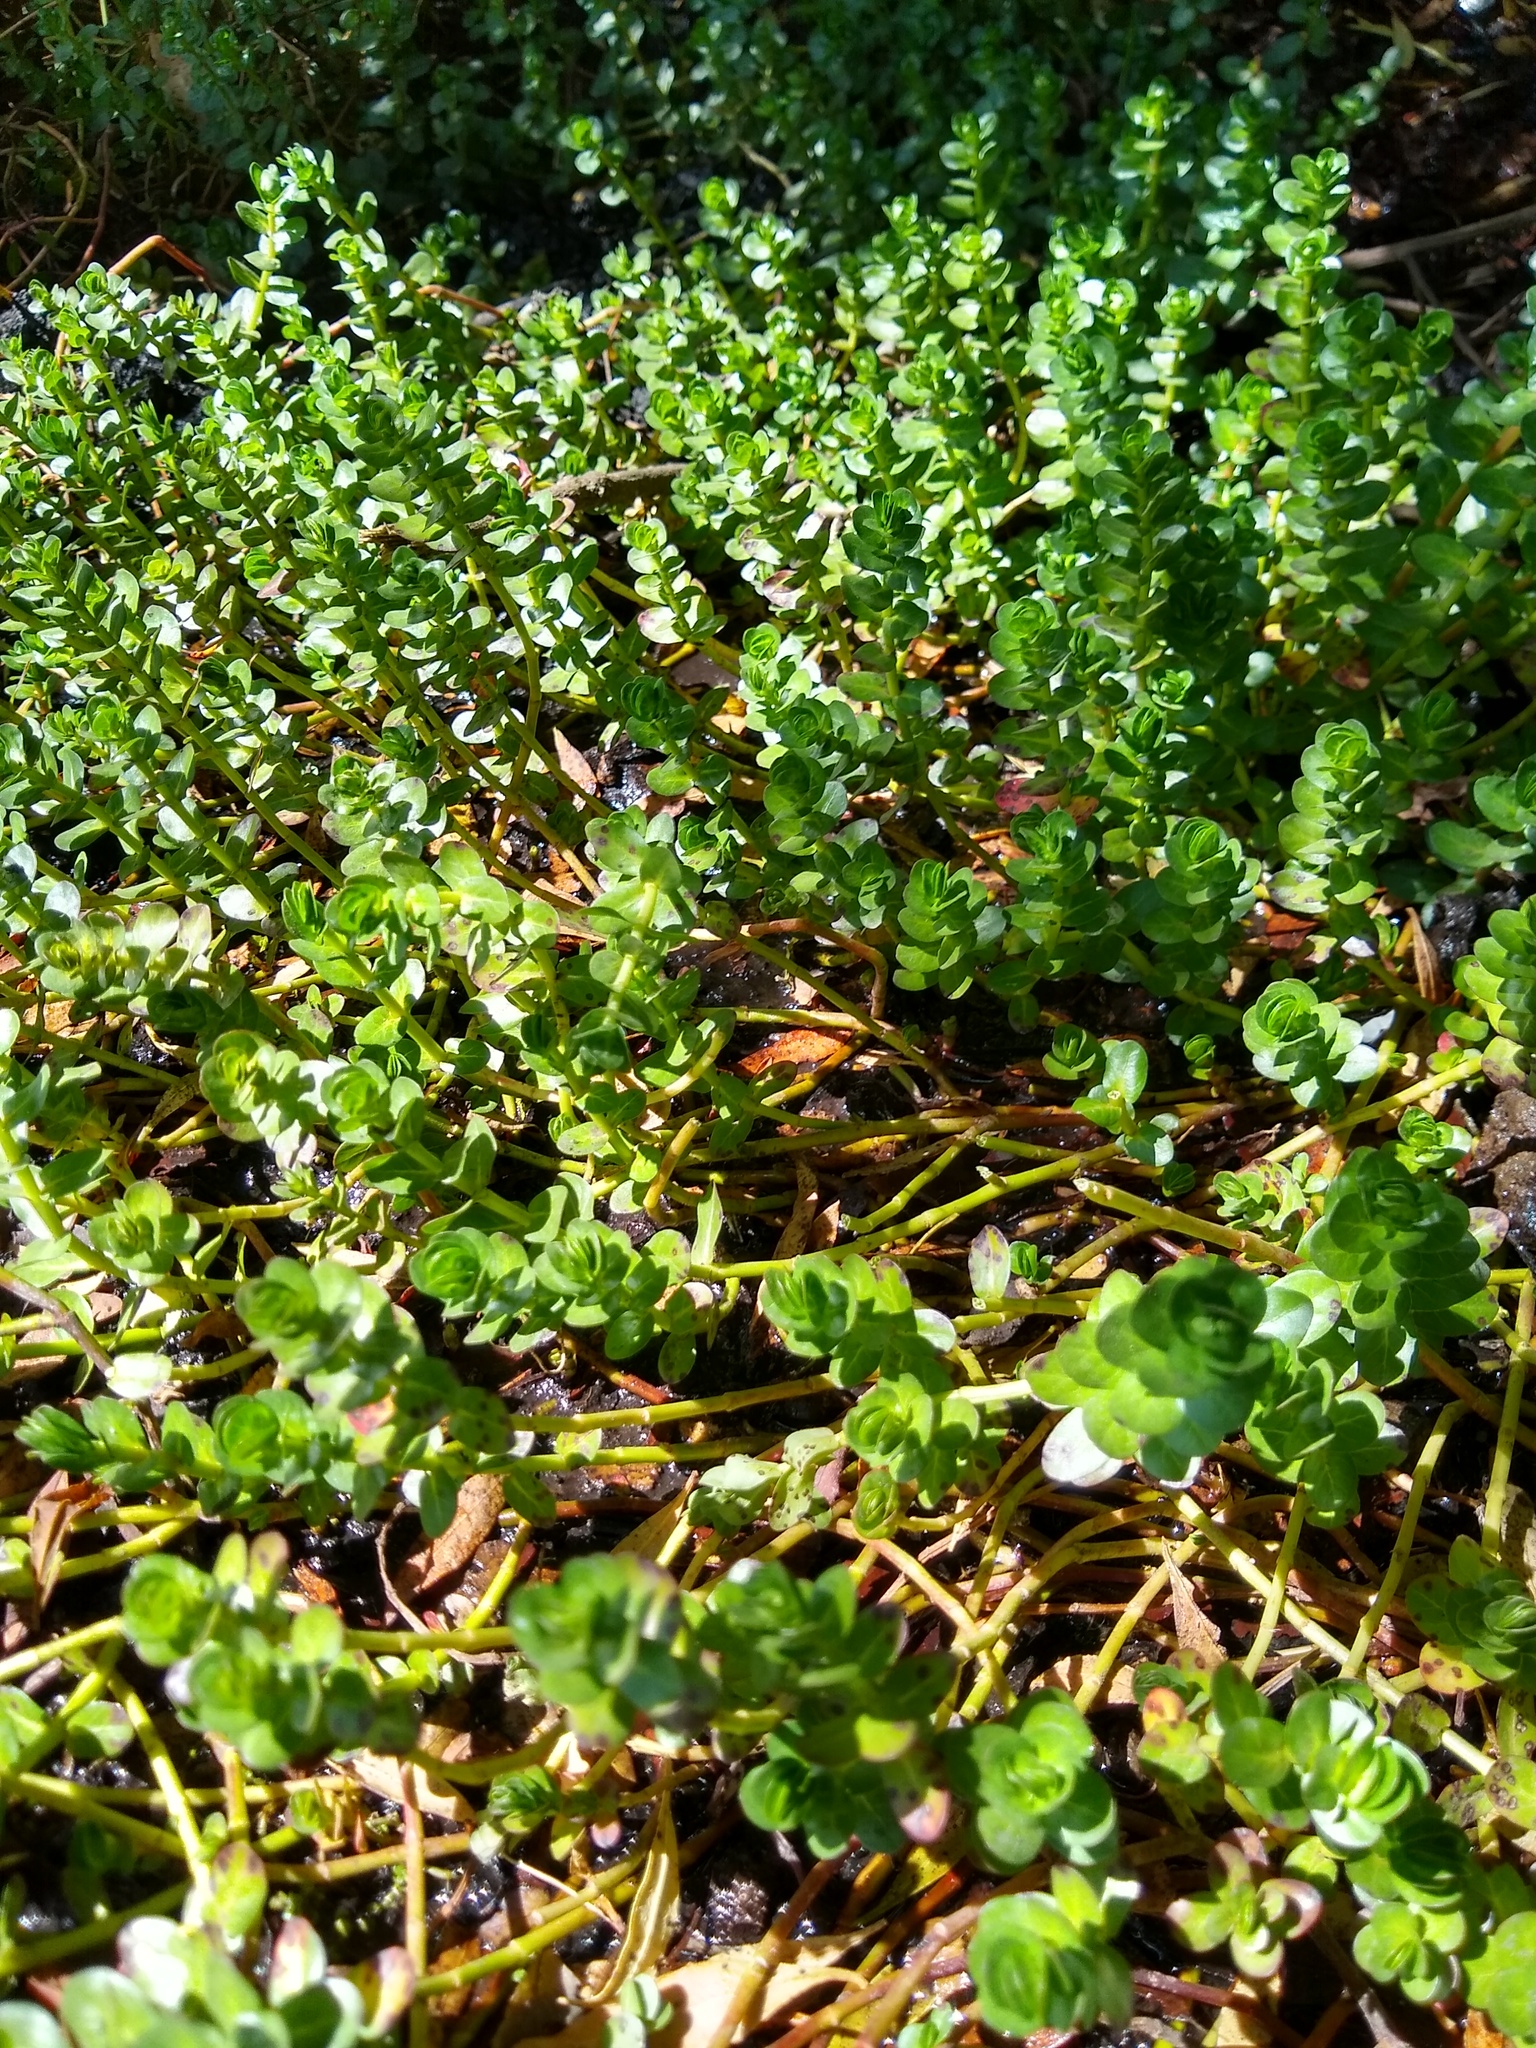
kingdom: Plantae
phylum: Tracheophyta
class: Magnoliopsida
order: Myrtales
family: Lythraceae
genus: Lythrum
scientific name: Lythrum rotundifolium
